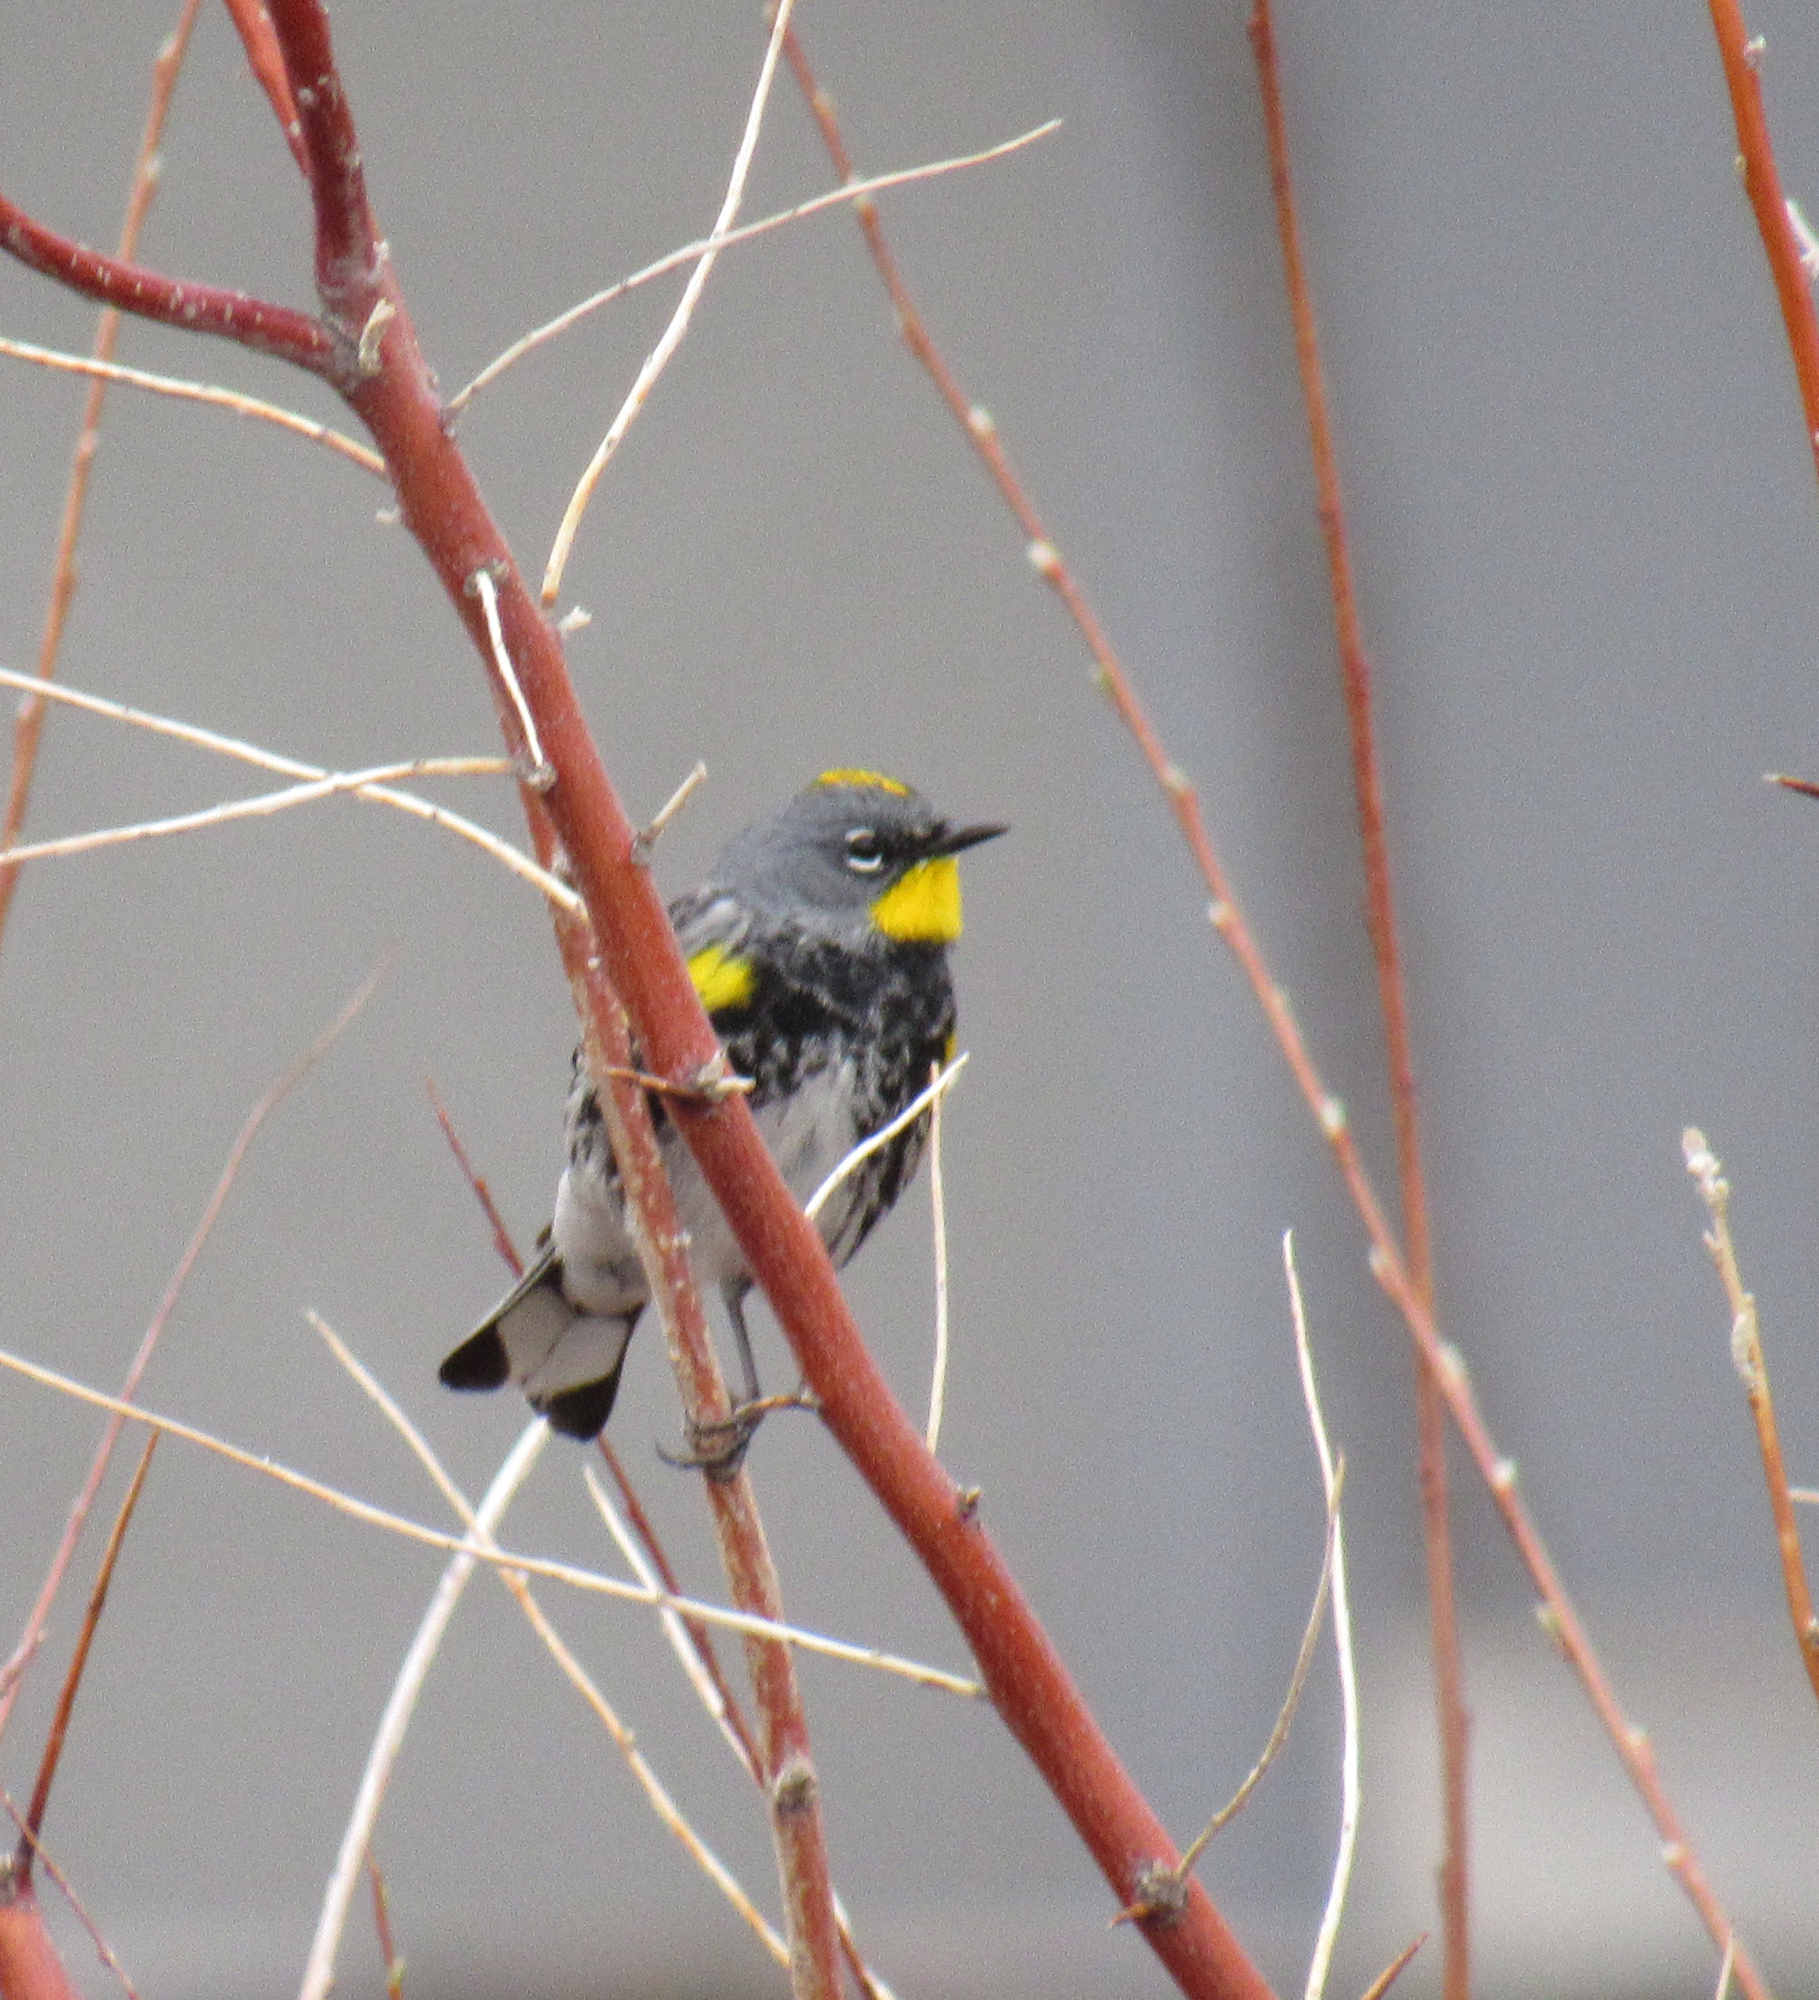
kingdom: Animalia
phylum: Chordata
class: Aves
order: Passeriformes
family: Parulidae
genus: Setophaga
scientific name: Setophaga auduboni
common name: Audubon's warbler
